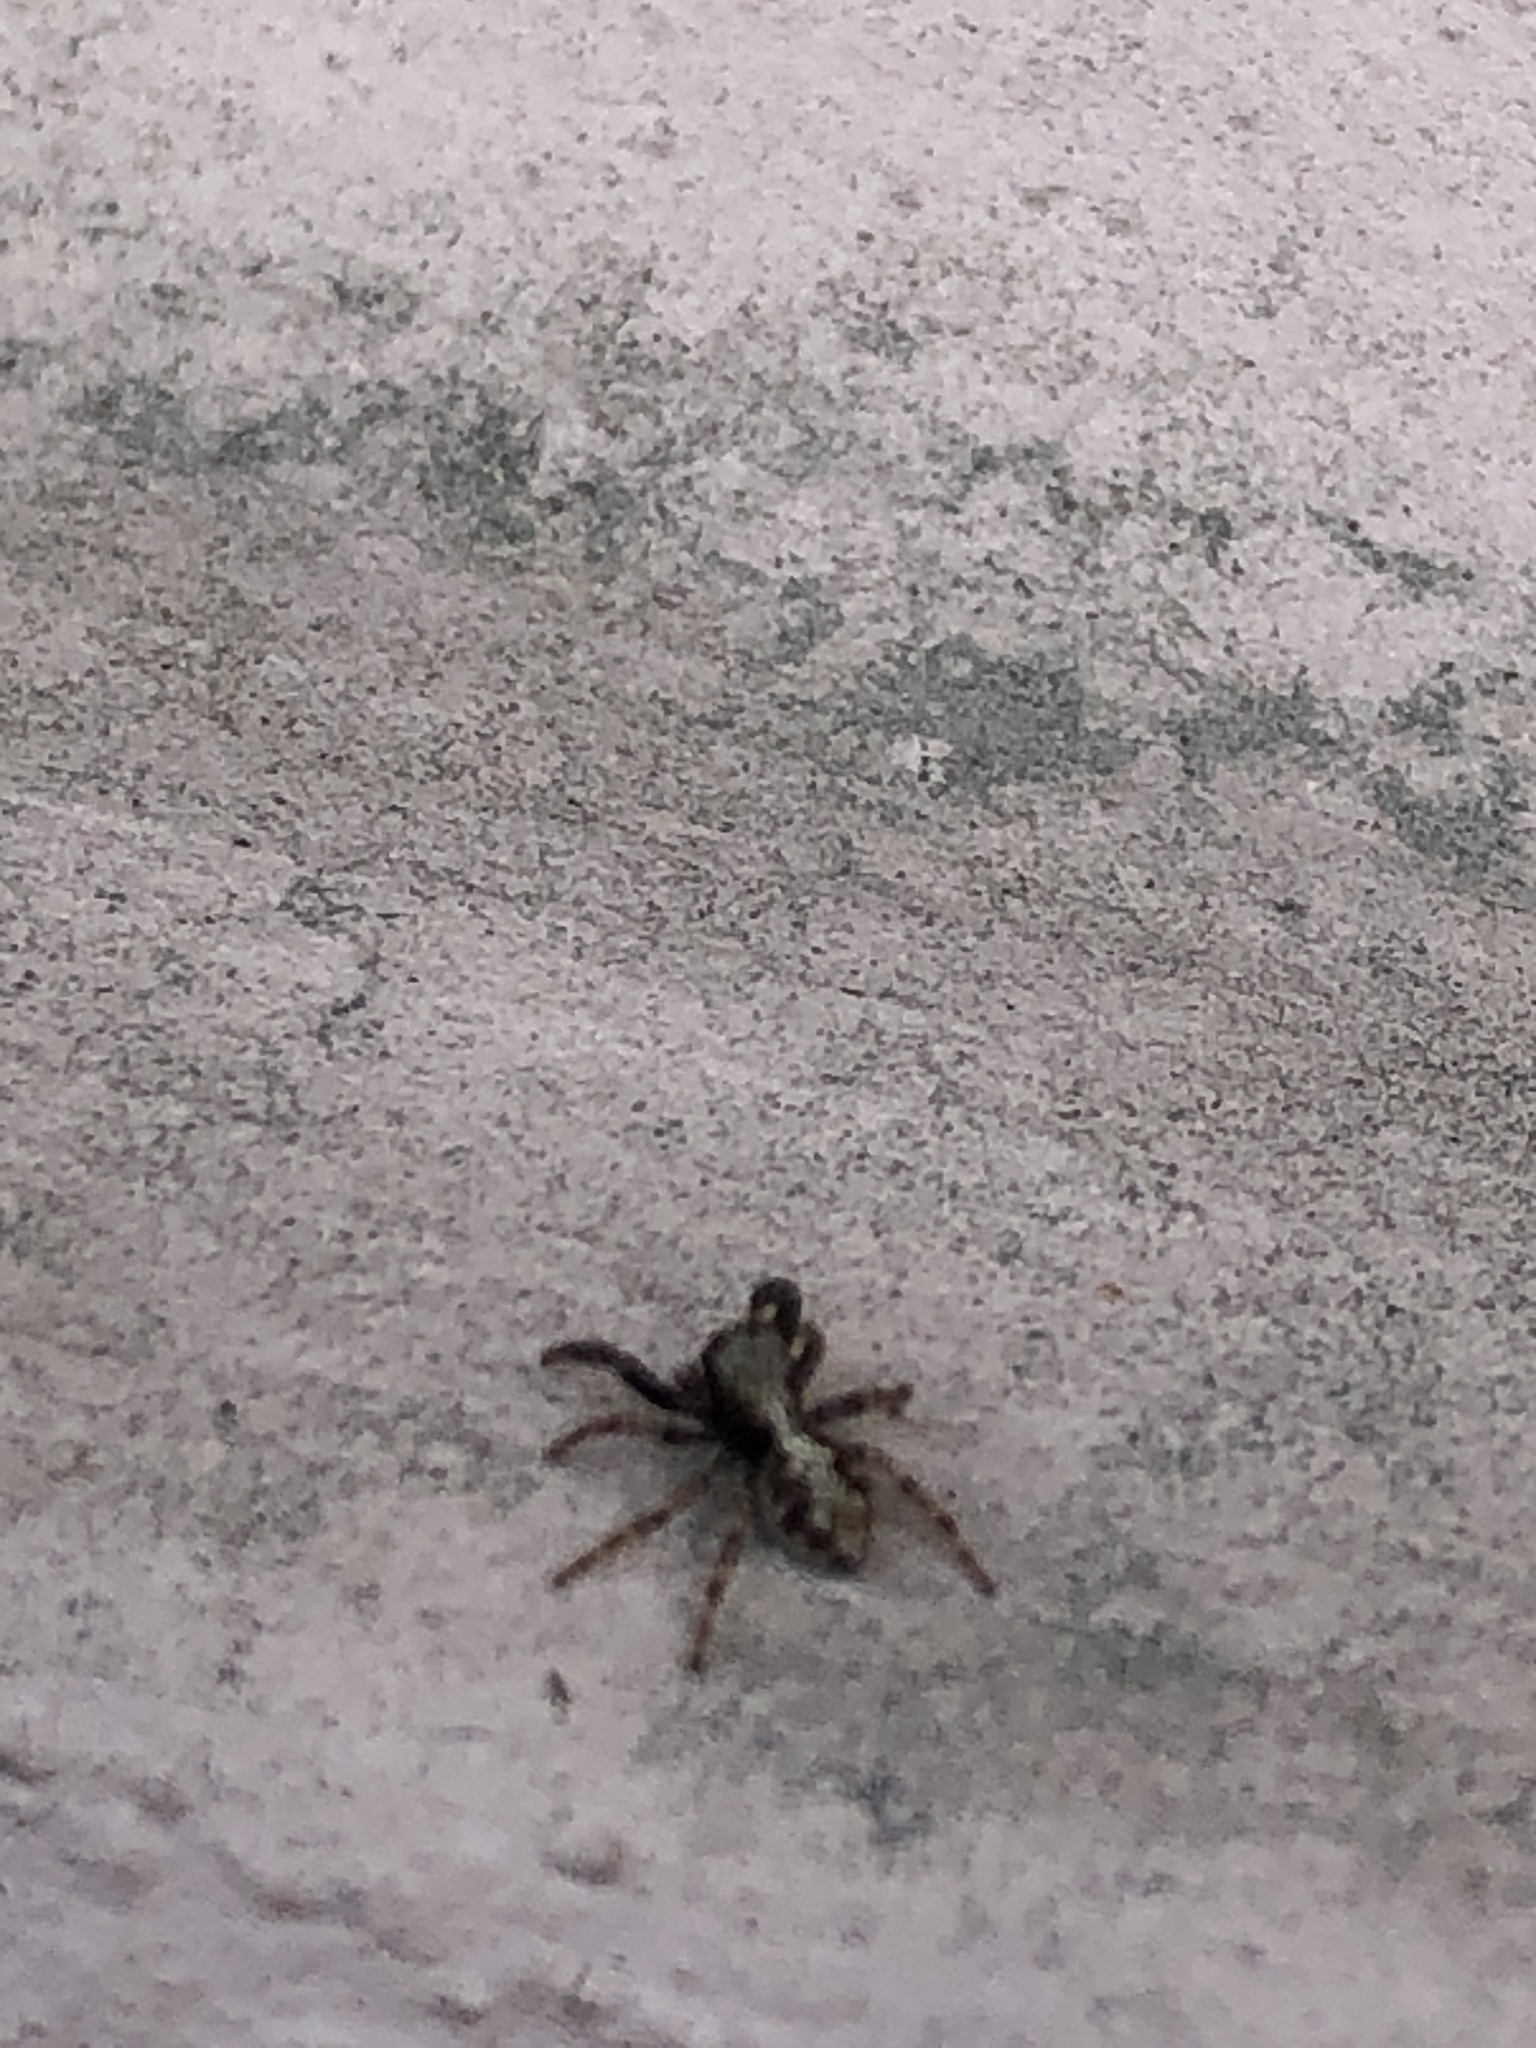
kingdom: Animalia
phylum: Arthropoda
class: Arachnida
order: Araneae
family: Salticidae
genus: Pseudeuophrys
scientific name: Pseudeuophrys lanigera
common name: Jumping spider
